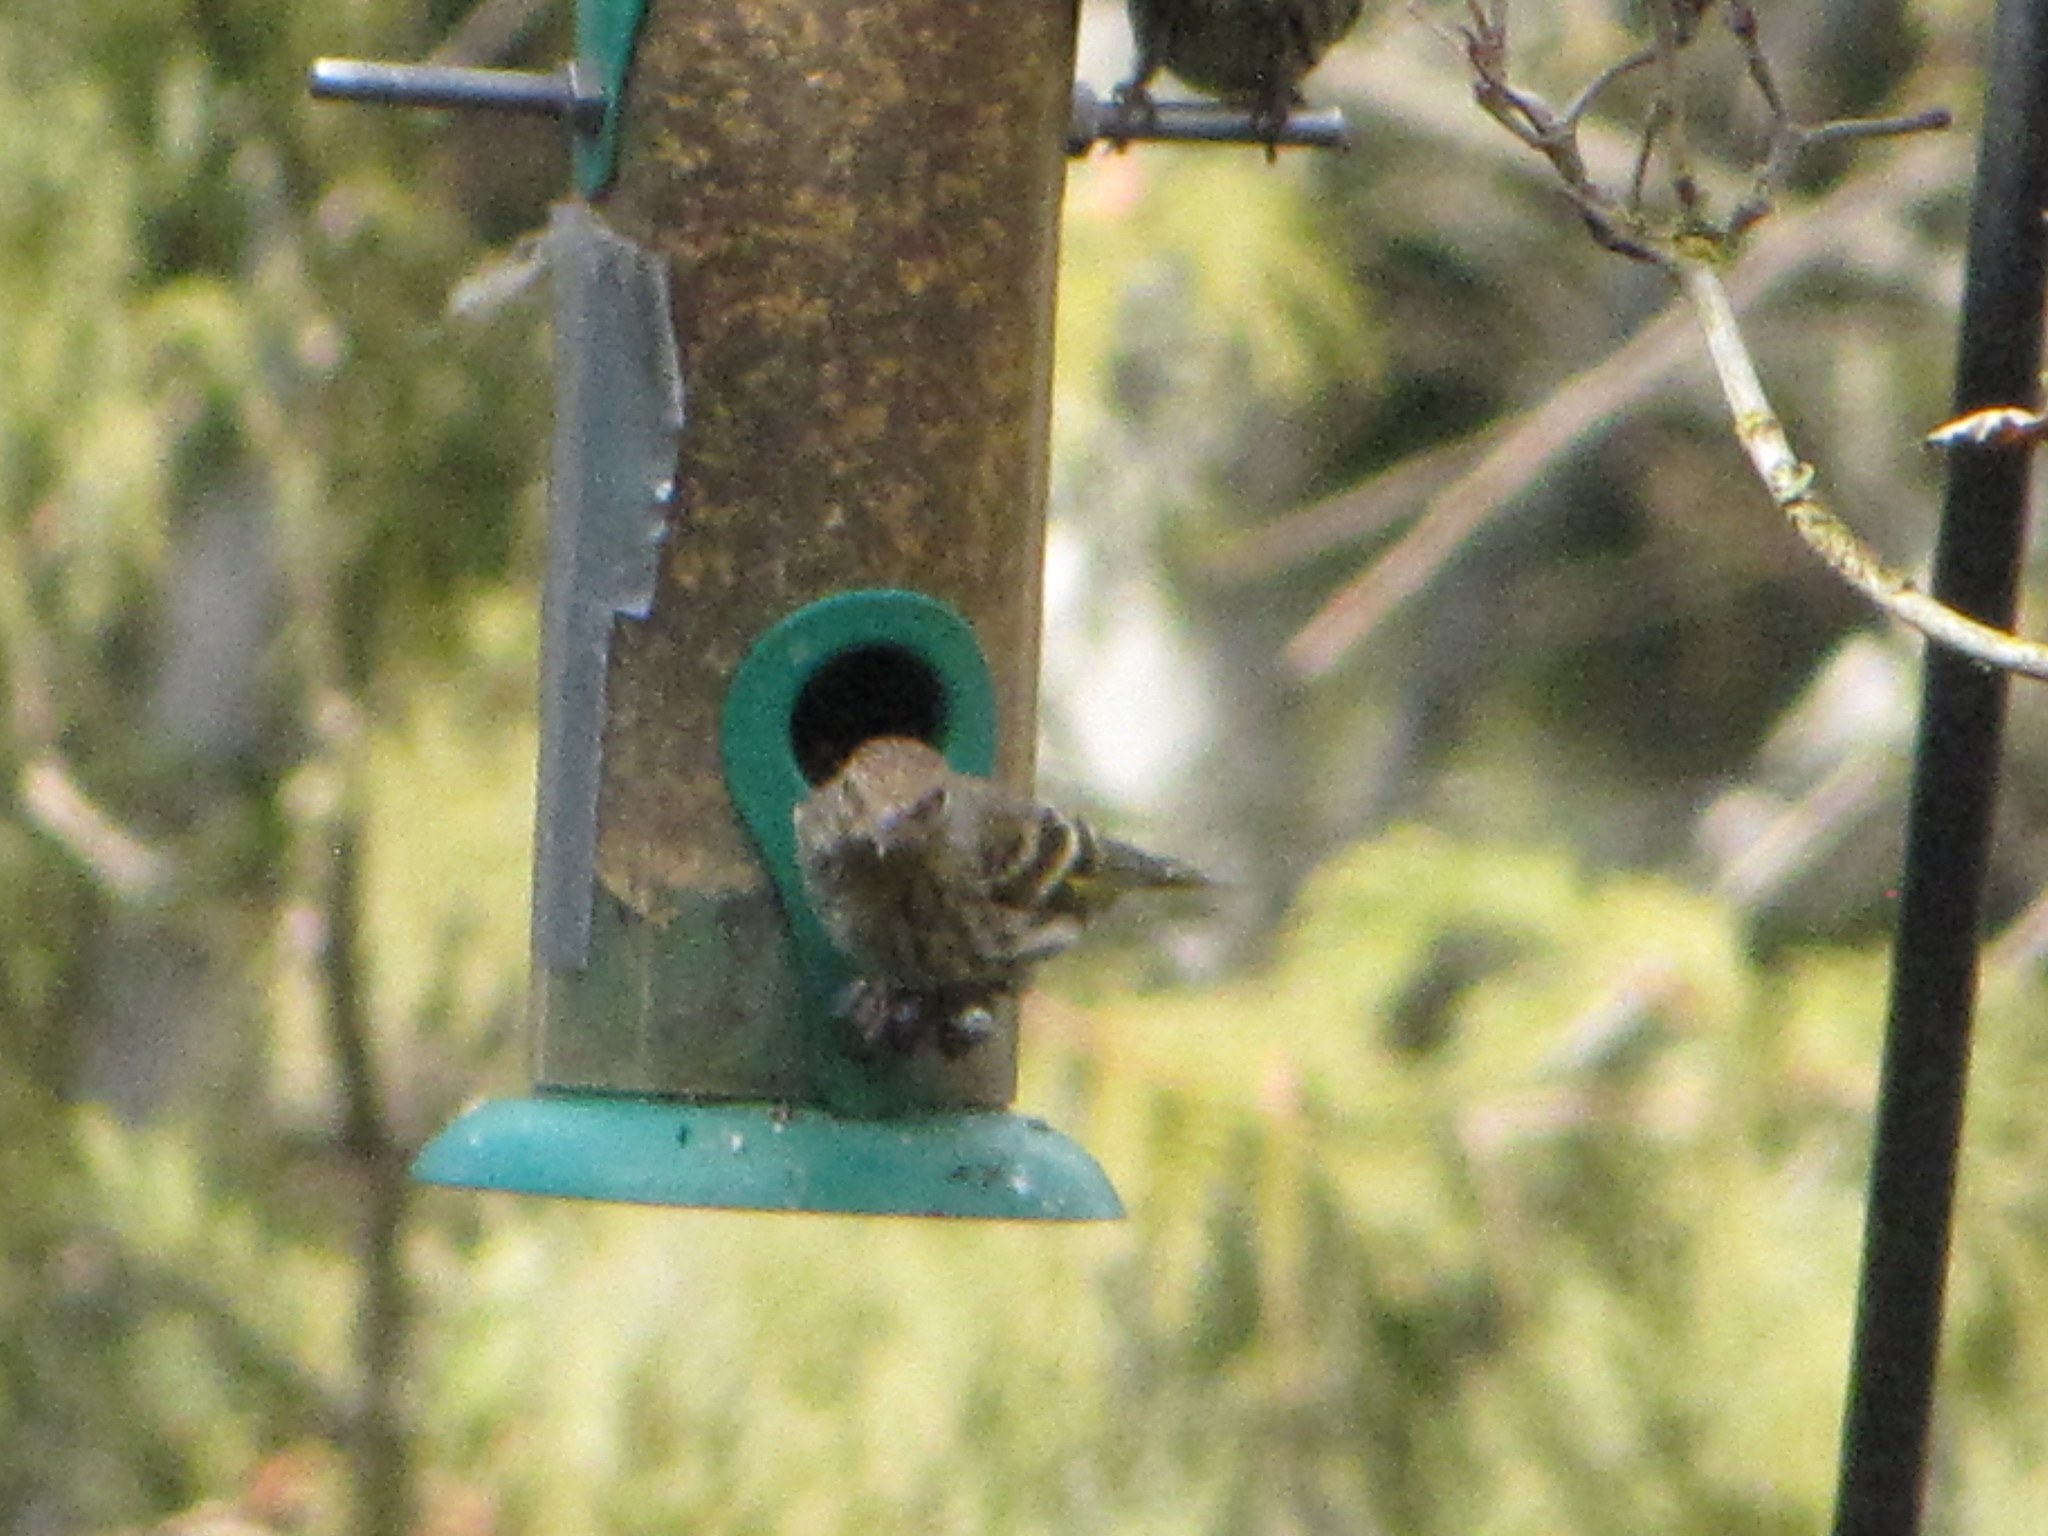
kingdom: Animalia
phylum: Chordata
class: Aves
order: Passeriformes
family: Fringillidae
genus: Spinus
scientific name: Spinus pinus
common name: Pine siskin
